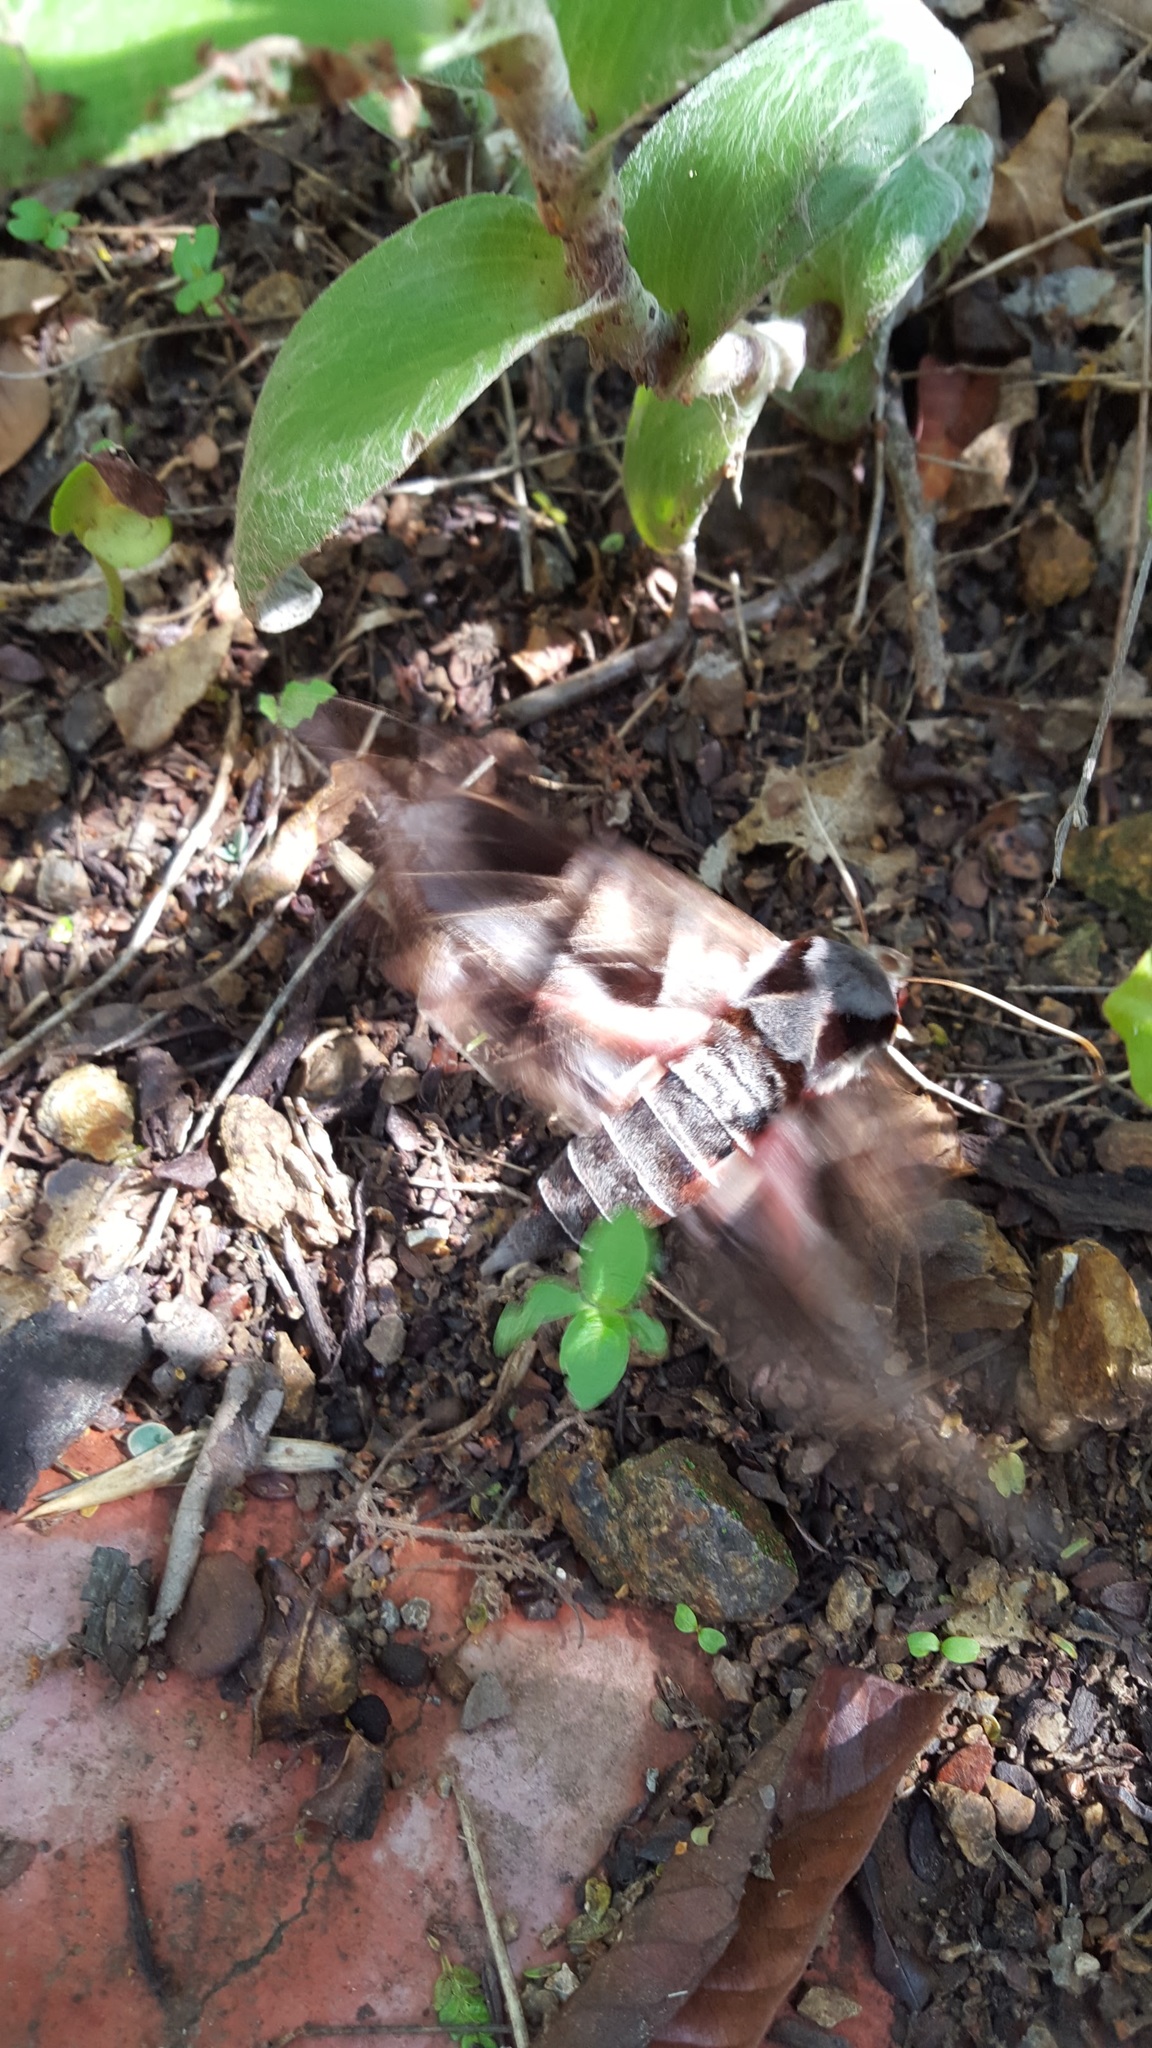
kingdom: Animalia
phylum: Arthropoda
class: Insecta
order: Lepidoptera
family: Sphingidae
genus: Eumorpha
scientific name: Eumorpha typhon
